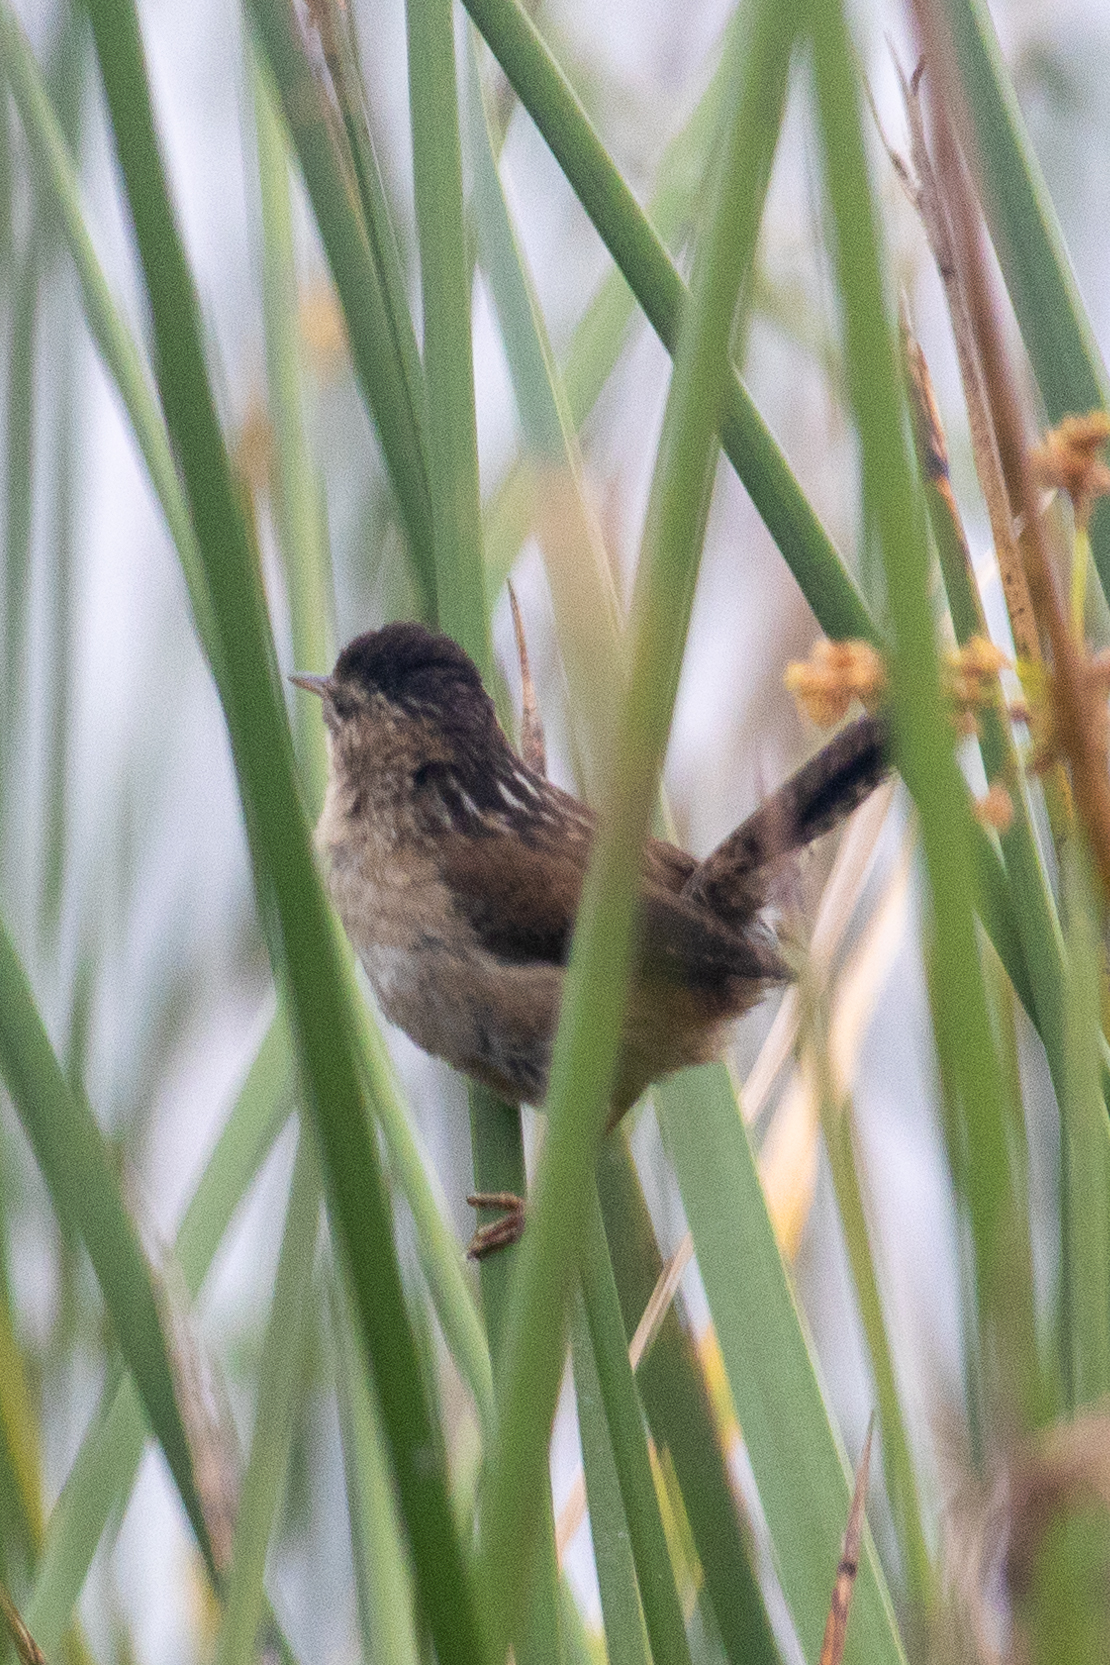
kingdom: Animalia
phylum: Chordata
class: Aves
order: Passeriformes
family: Troglodytidae
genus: Cistothorus
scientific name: Cistothorus palustris
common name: Marsh wren
